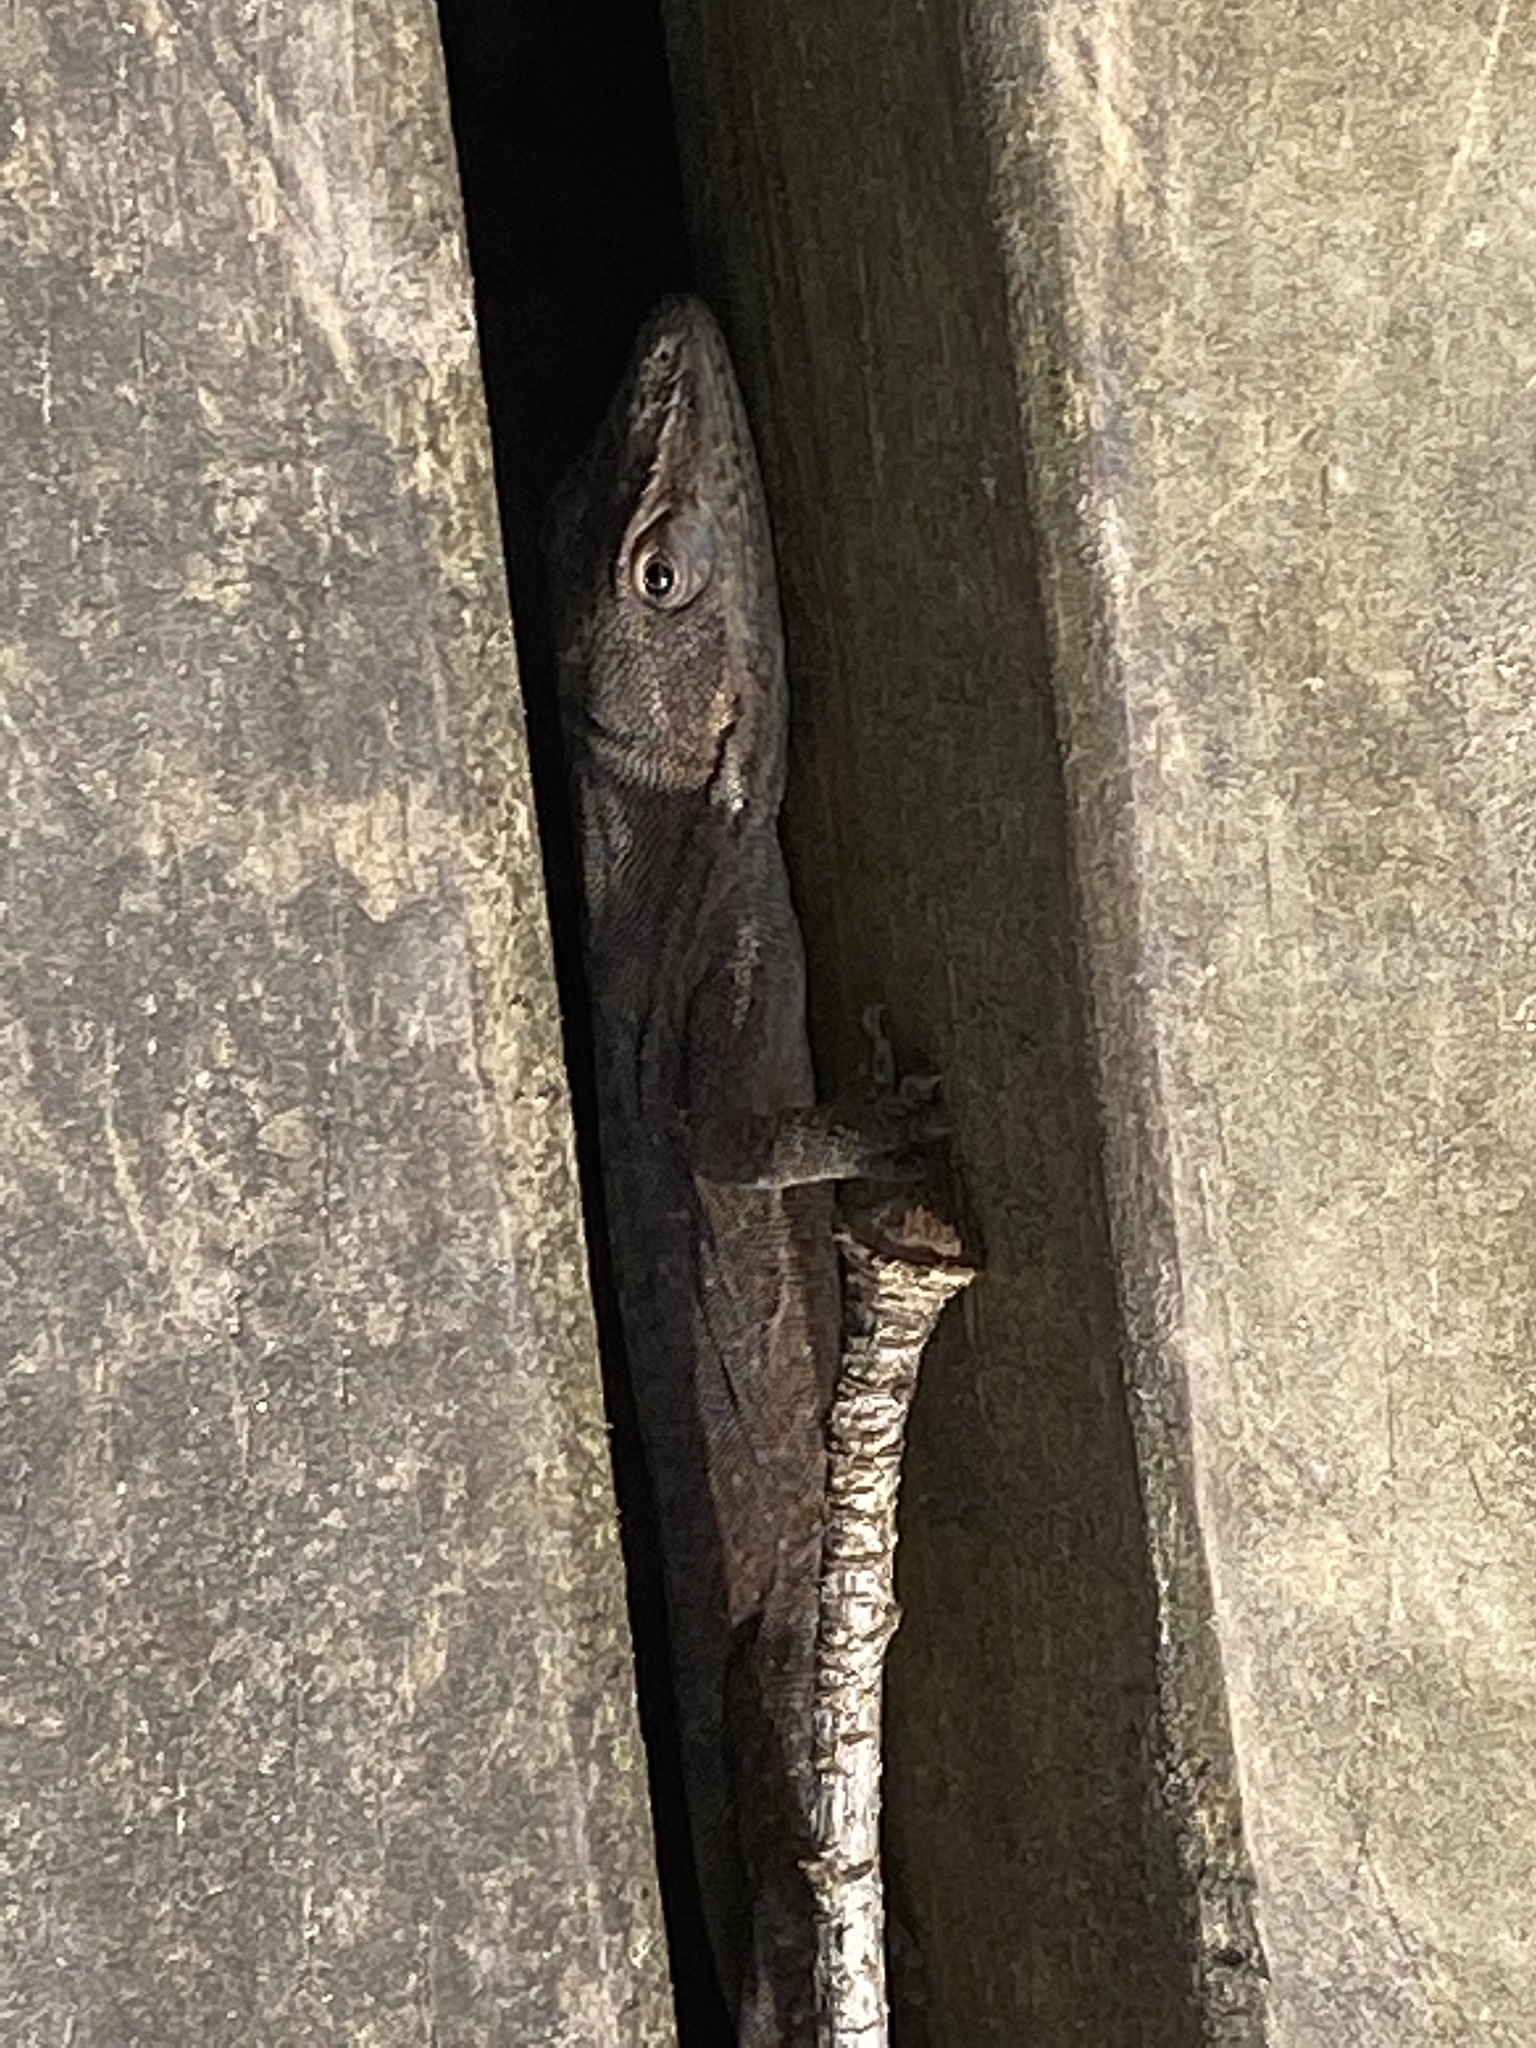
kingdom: Animalia
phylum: Chordata
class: Squamata
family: Dactyloidae
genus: Anolis
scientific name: Anolis carolinensis
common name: Green anole
